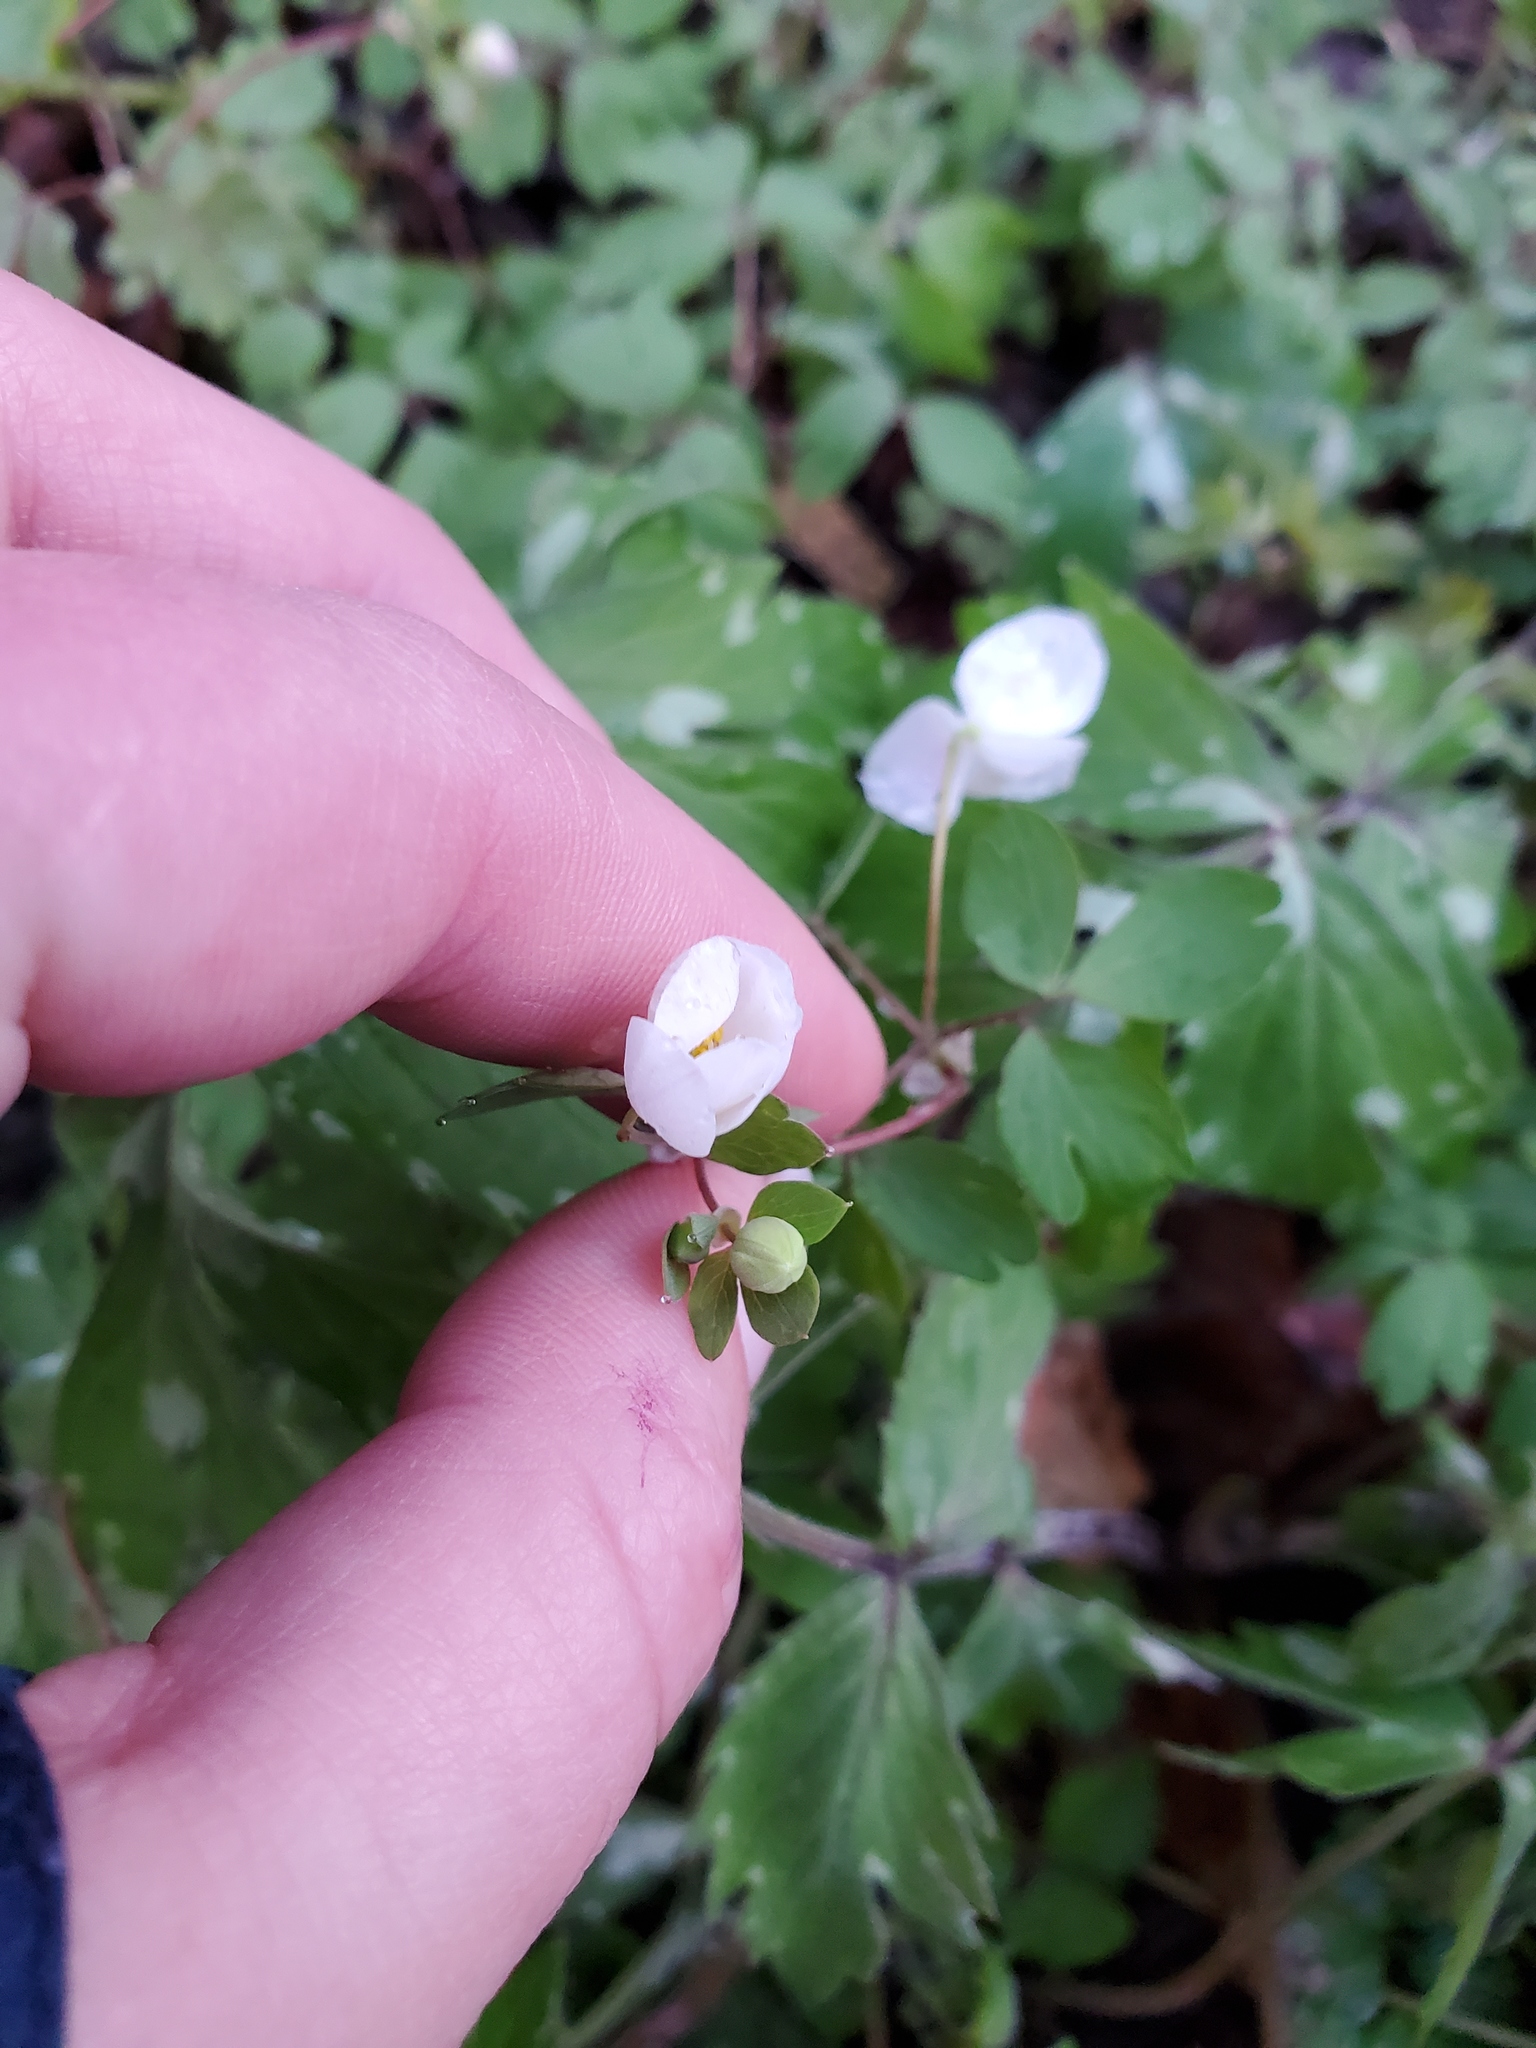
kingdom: Plantae
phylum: Tracheophyta
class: Magnoliopsida
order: Ranunculales
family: Ranunculaceae
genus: Enemion
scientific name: Enemion biternatum
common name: Eastern false rue-anemone
